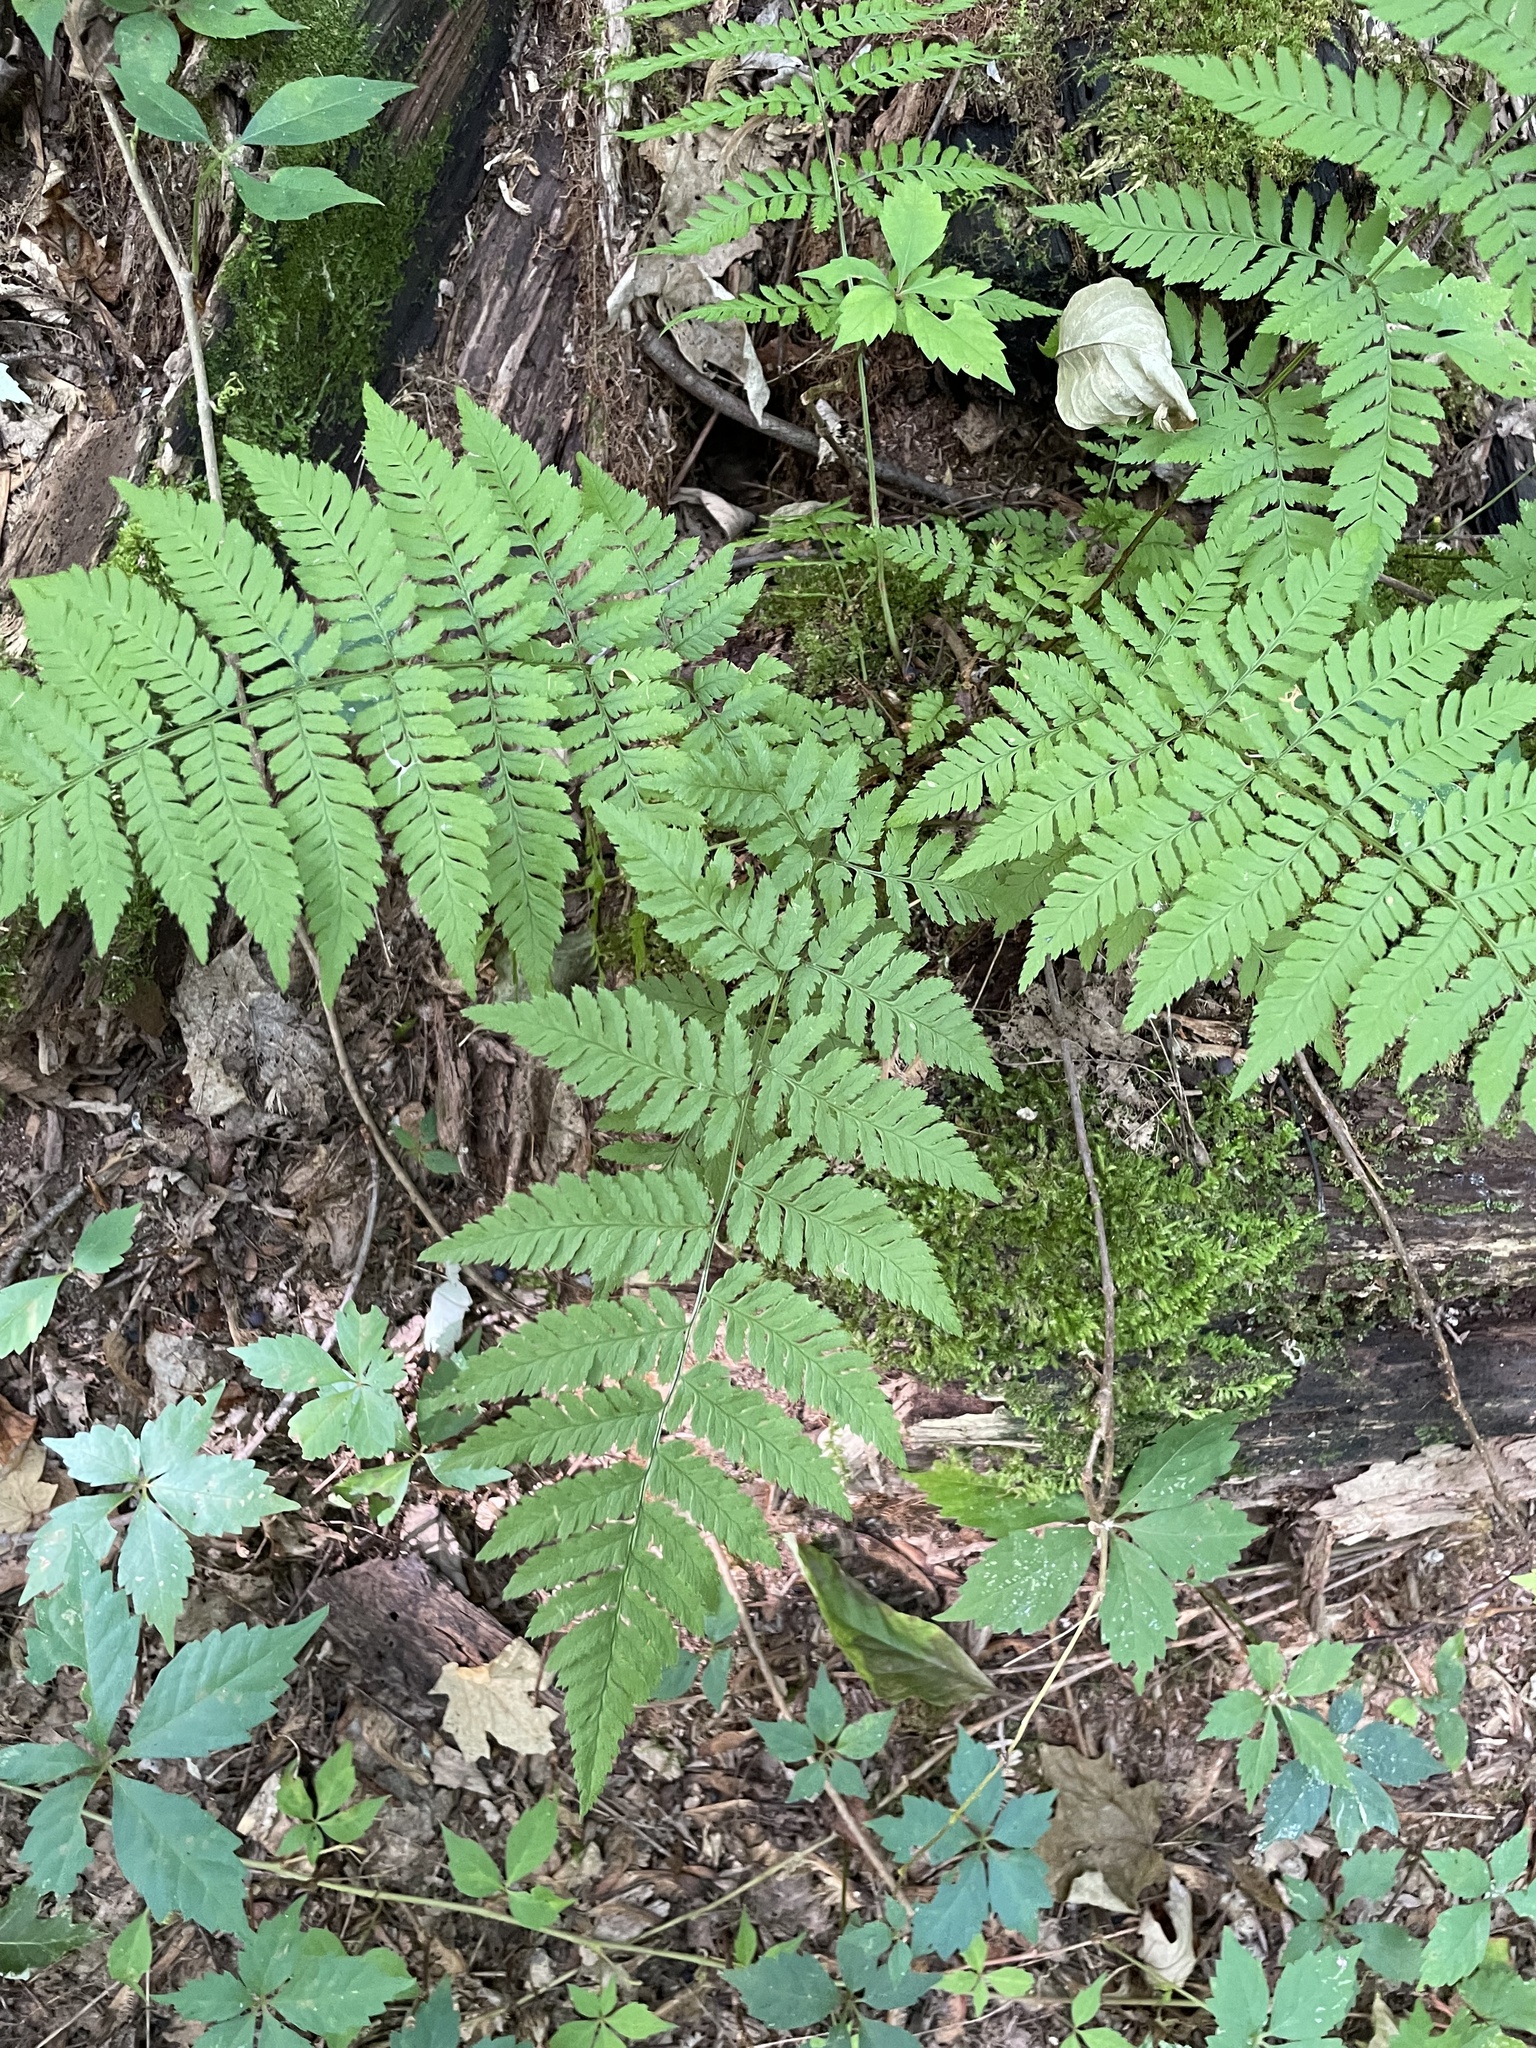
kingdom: Plantae
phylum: Tracheophyta
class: Polypodiopsida
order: Polypodiales
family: Dryopteridaceae
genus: Dryopteris
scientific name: Dryopteris carthusiana
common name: Narrow buckler-fern
